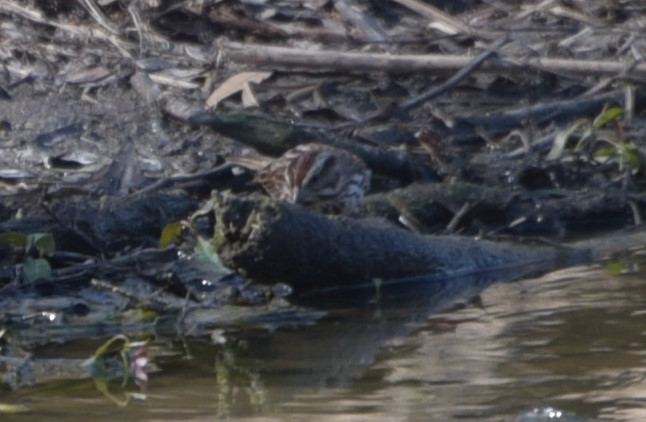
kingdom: Animalia
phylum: Chordata
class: Aves
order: Passeriformes
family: Passerellidae
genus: Melospiza
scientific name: Melospiza melodia
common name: Song sparrow
